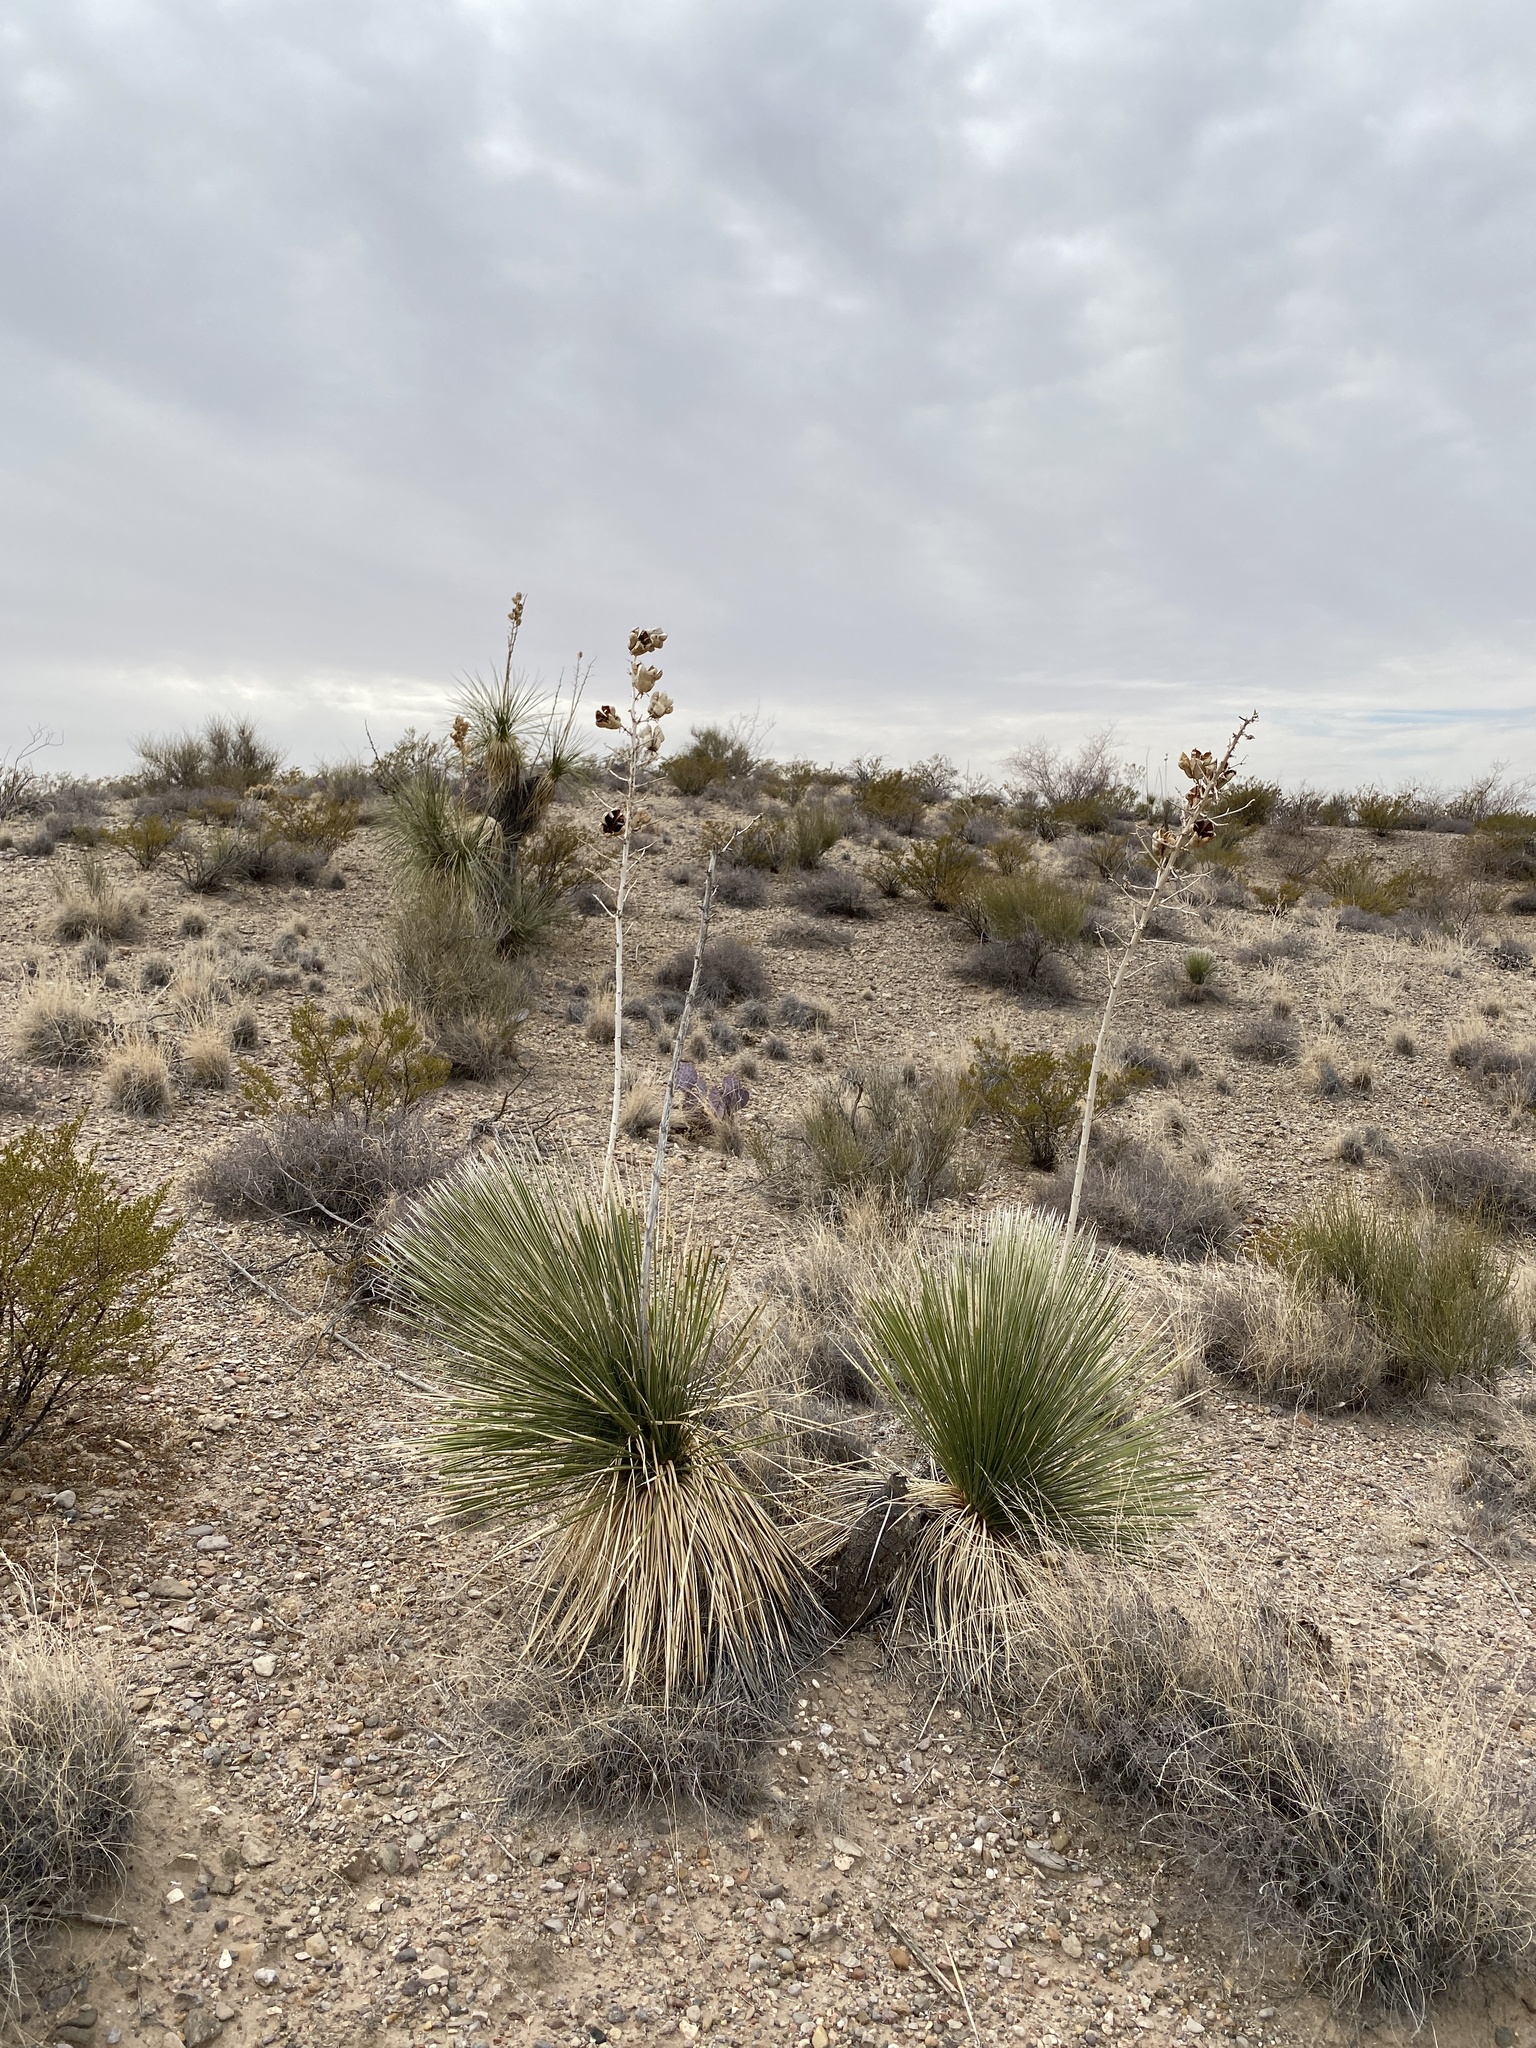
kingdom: Plantae
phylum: Tracheophyta
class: Liliopsida
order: Asparagales
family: Asparagaceae
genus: Yucca
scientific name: Yucca elata
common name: Palmella
